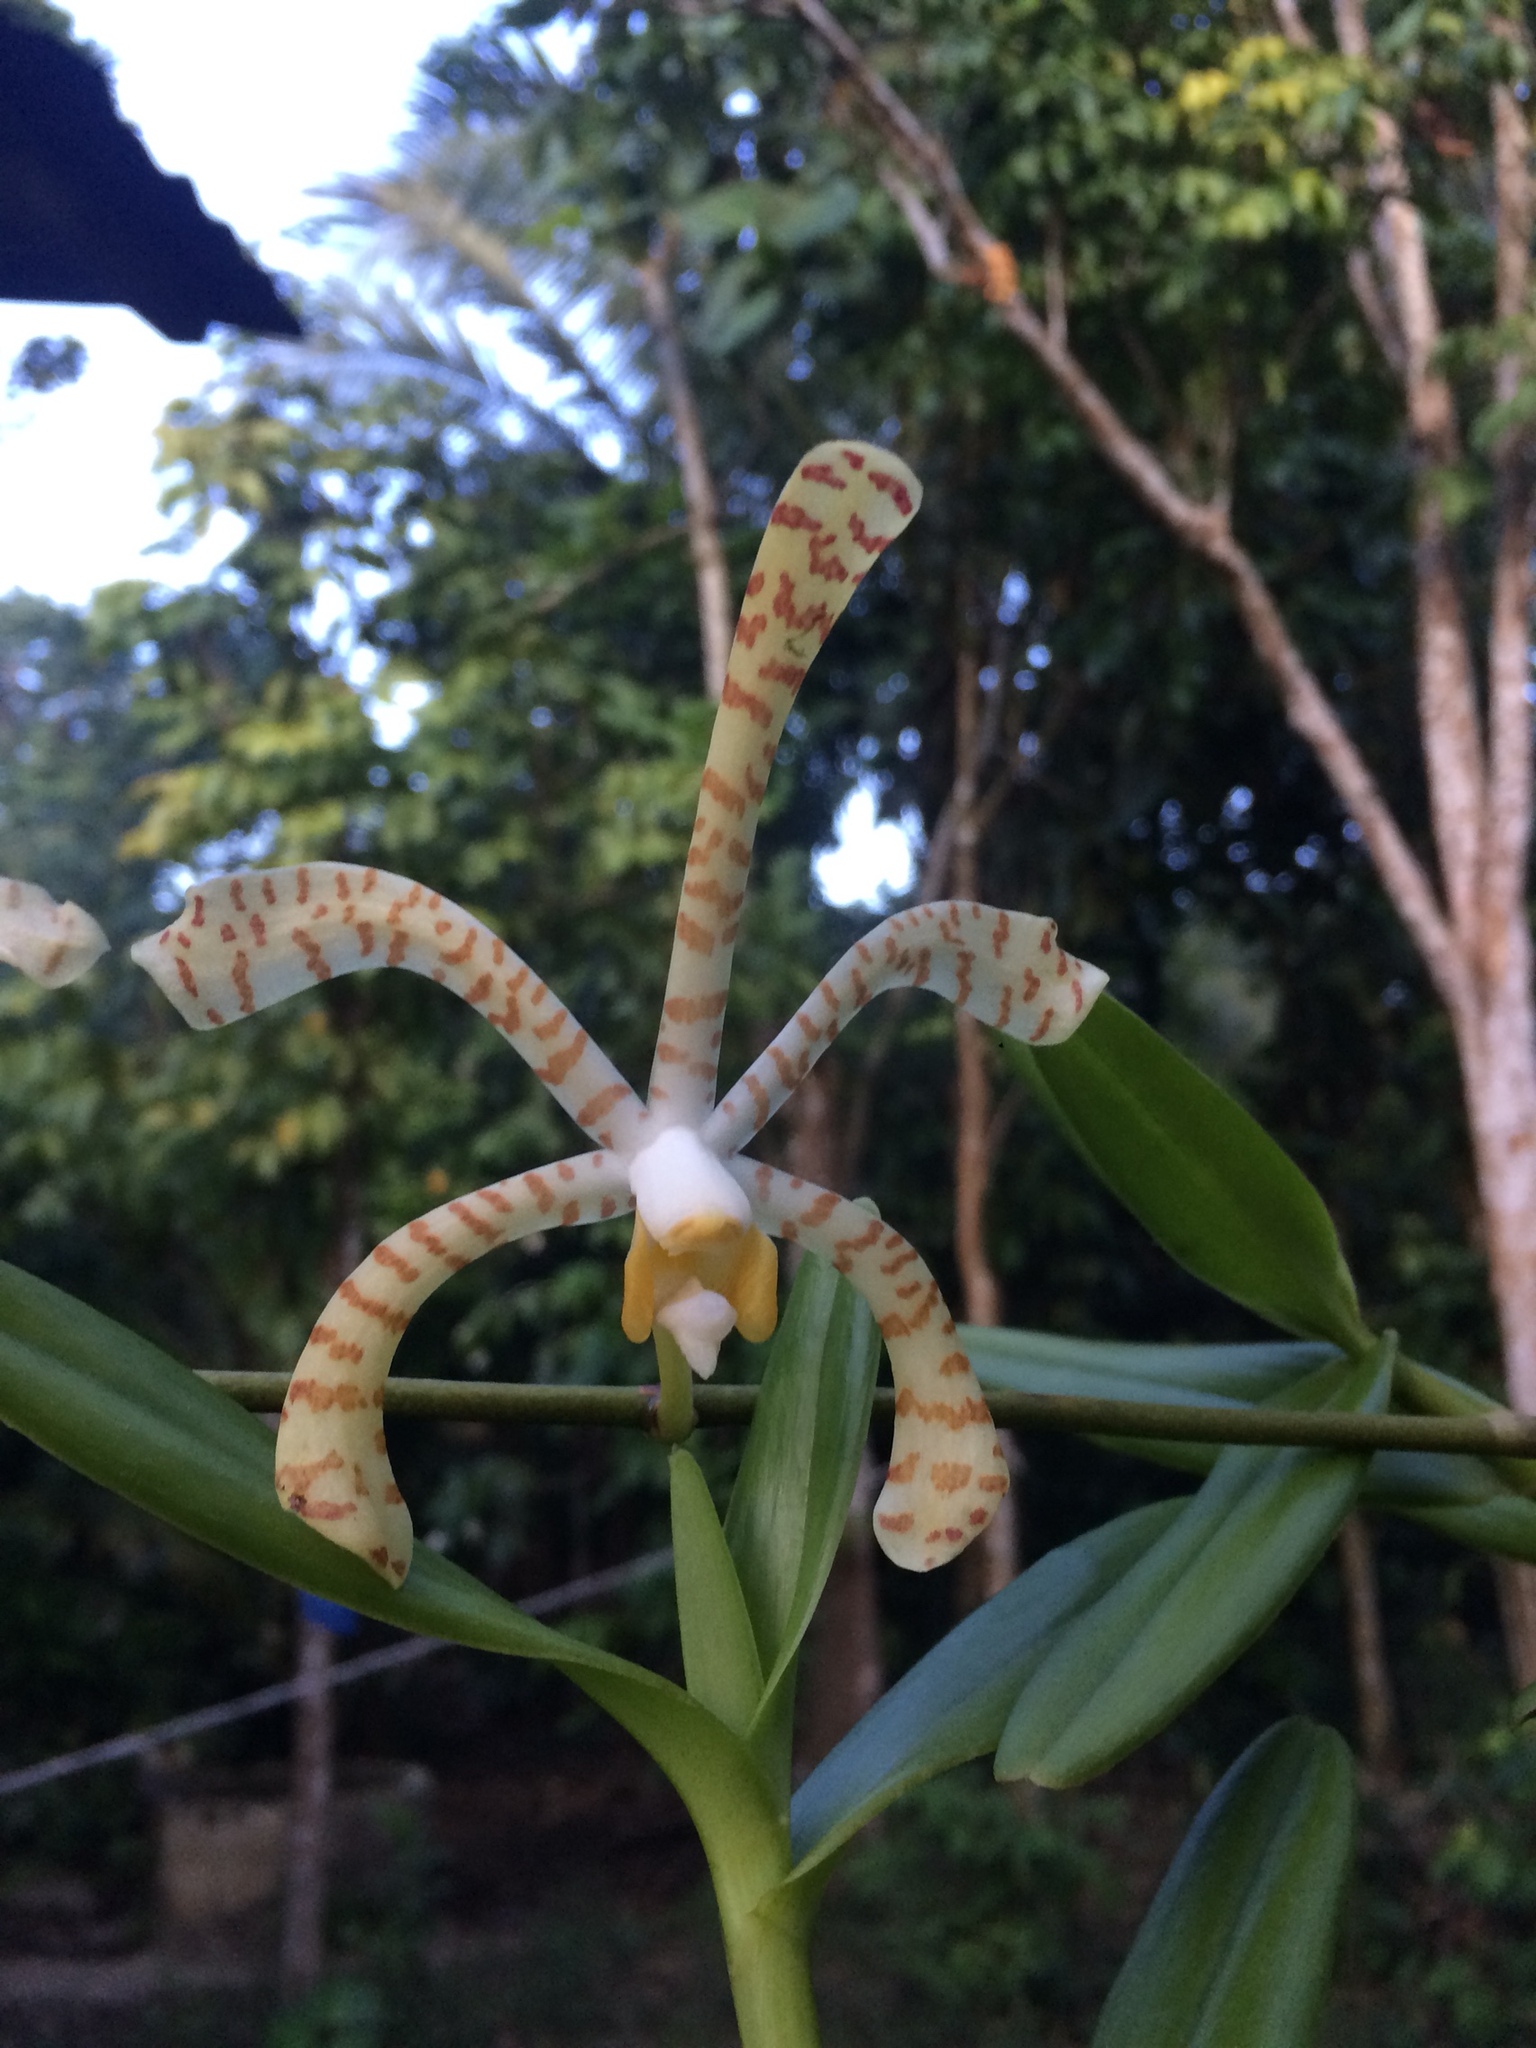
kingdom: Plantae
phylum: Tracheophyta
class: Liliopsida
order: Asparagales
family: Orchidaceae
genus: Arachnis
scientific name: Arachnis flos-aeris
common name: Spider orchid
